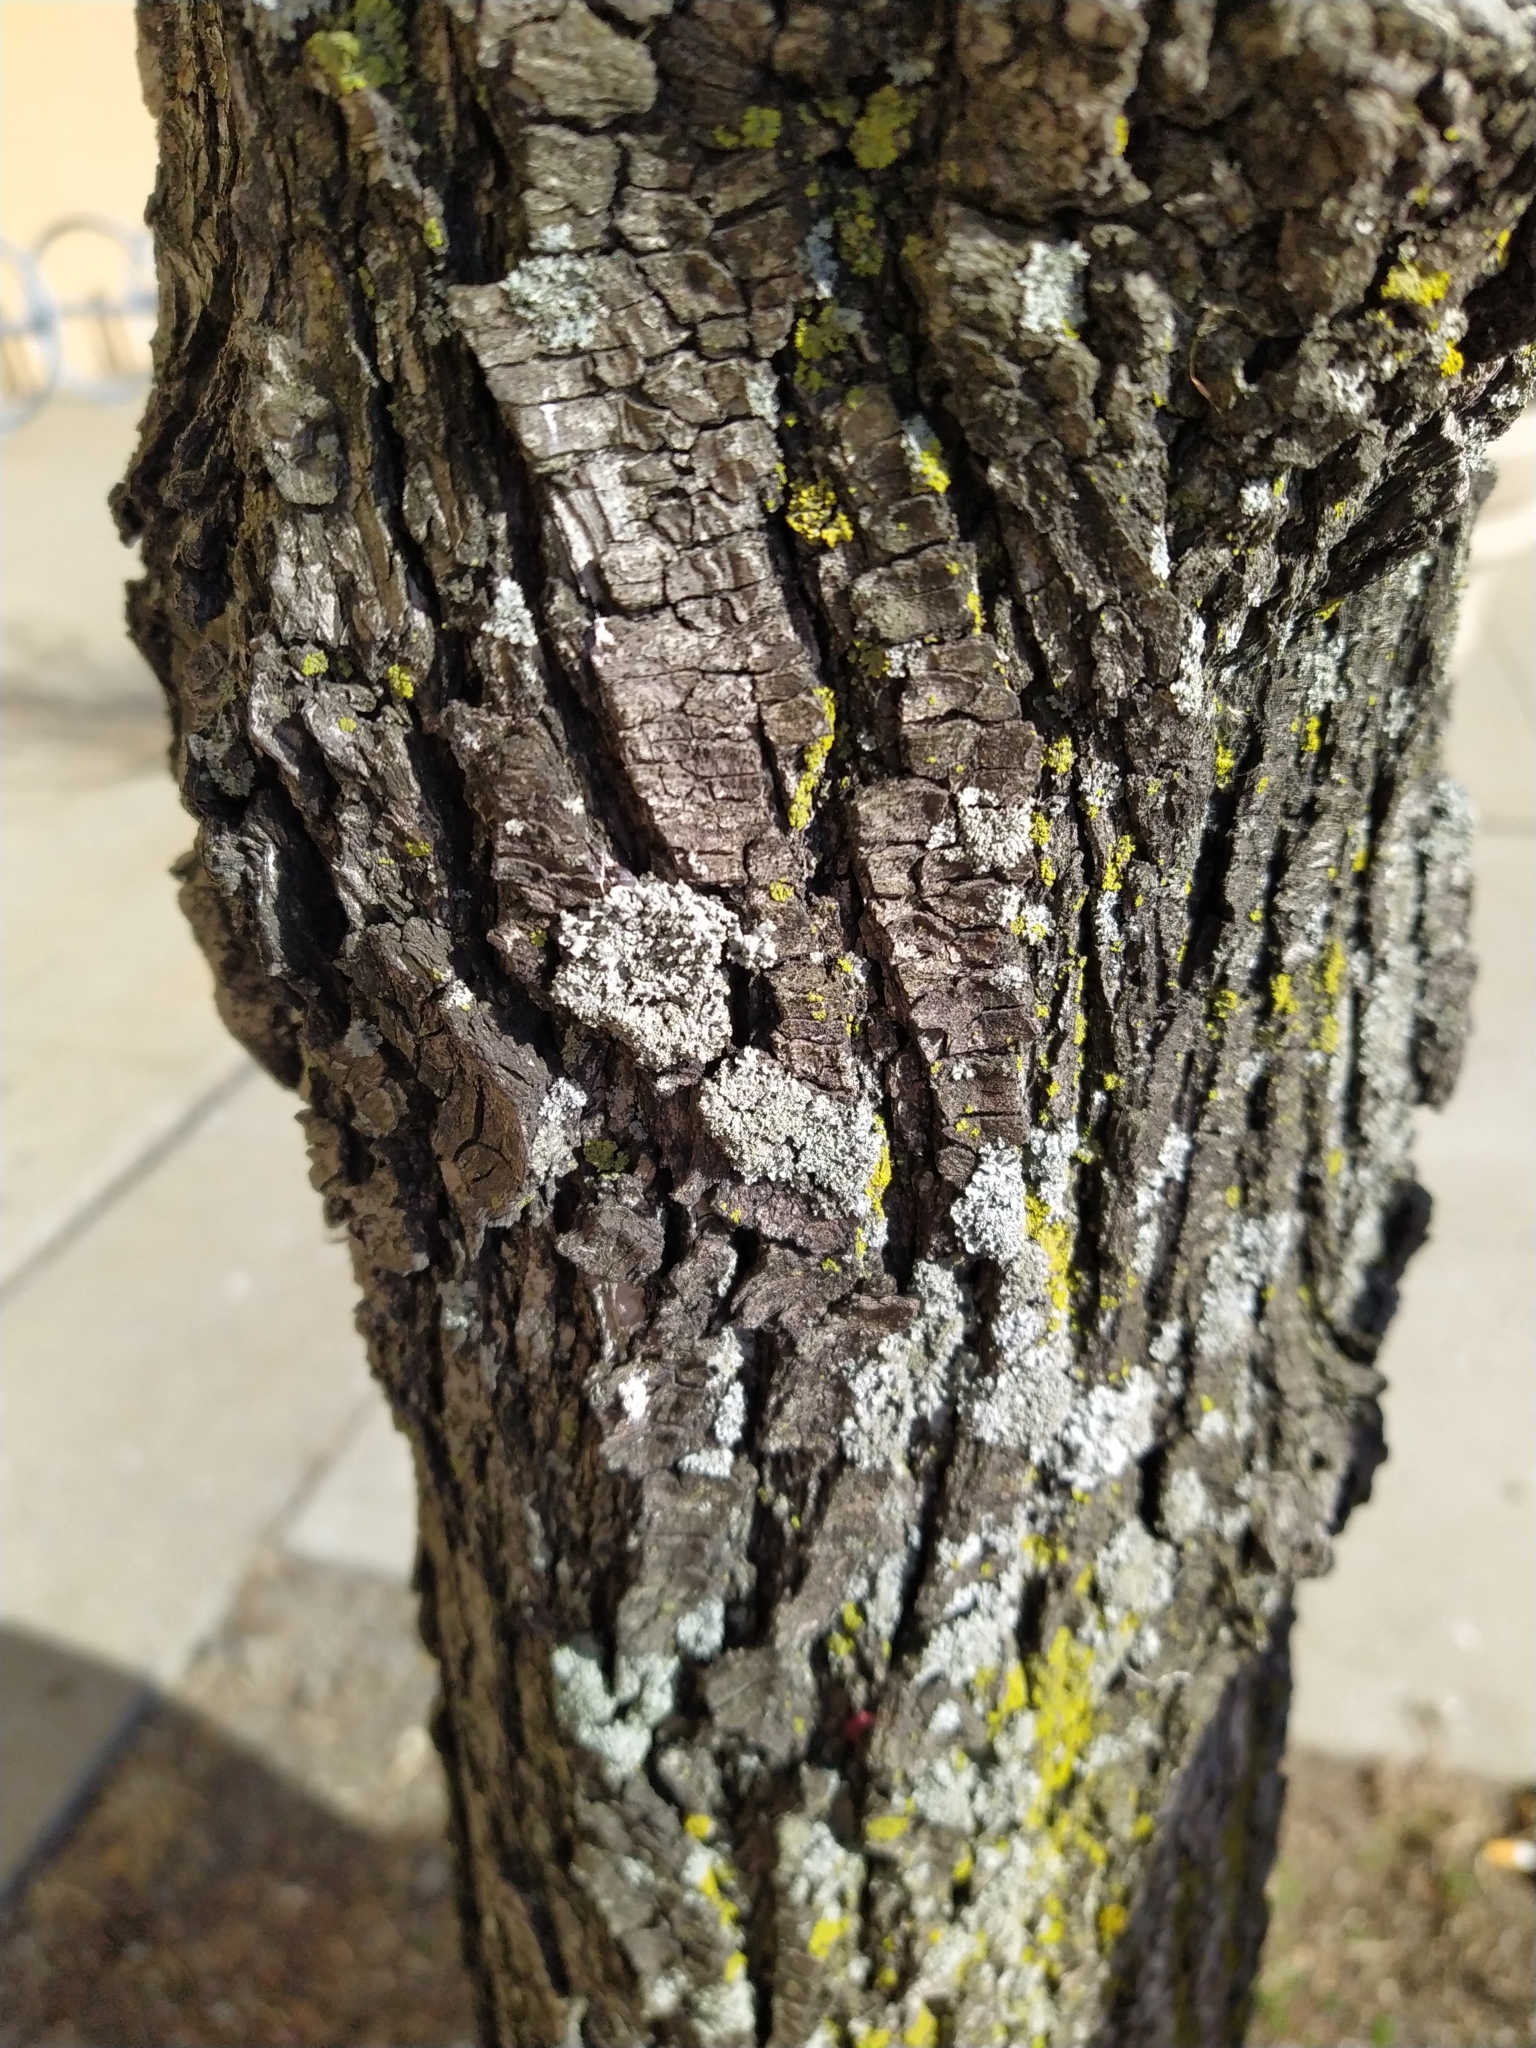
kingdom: Fungi
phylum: Ascomycota
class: Lecanoromycetes
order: Caliciales
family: Physciaceae
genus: Physcia
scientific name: Physcia millegrana
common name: Rosette lichen
